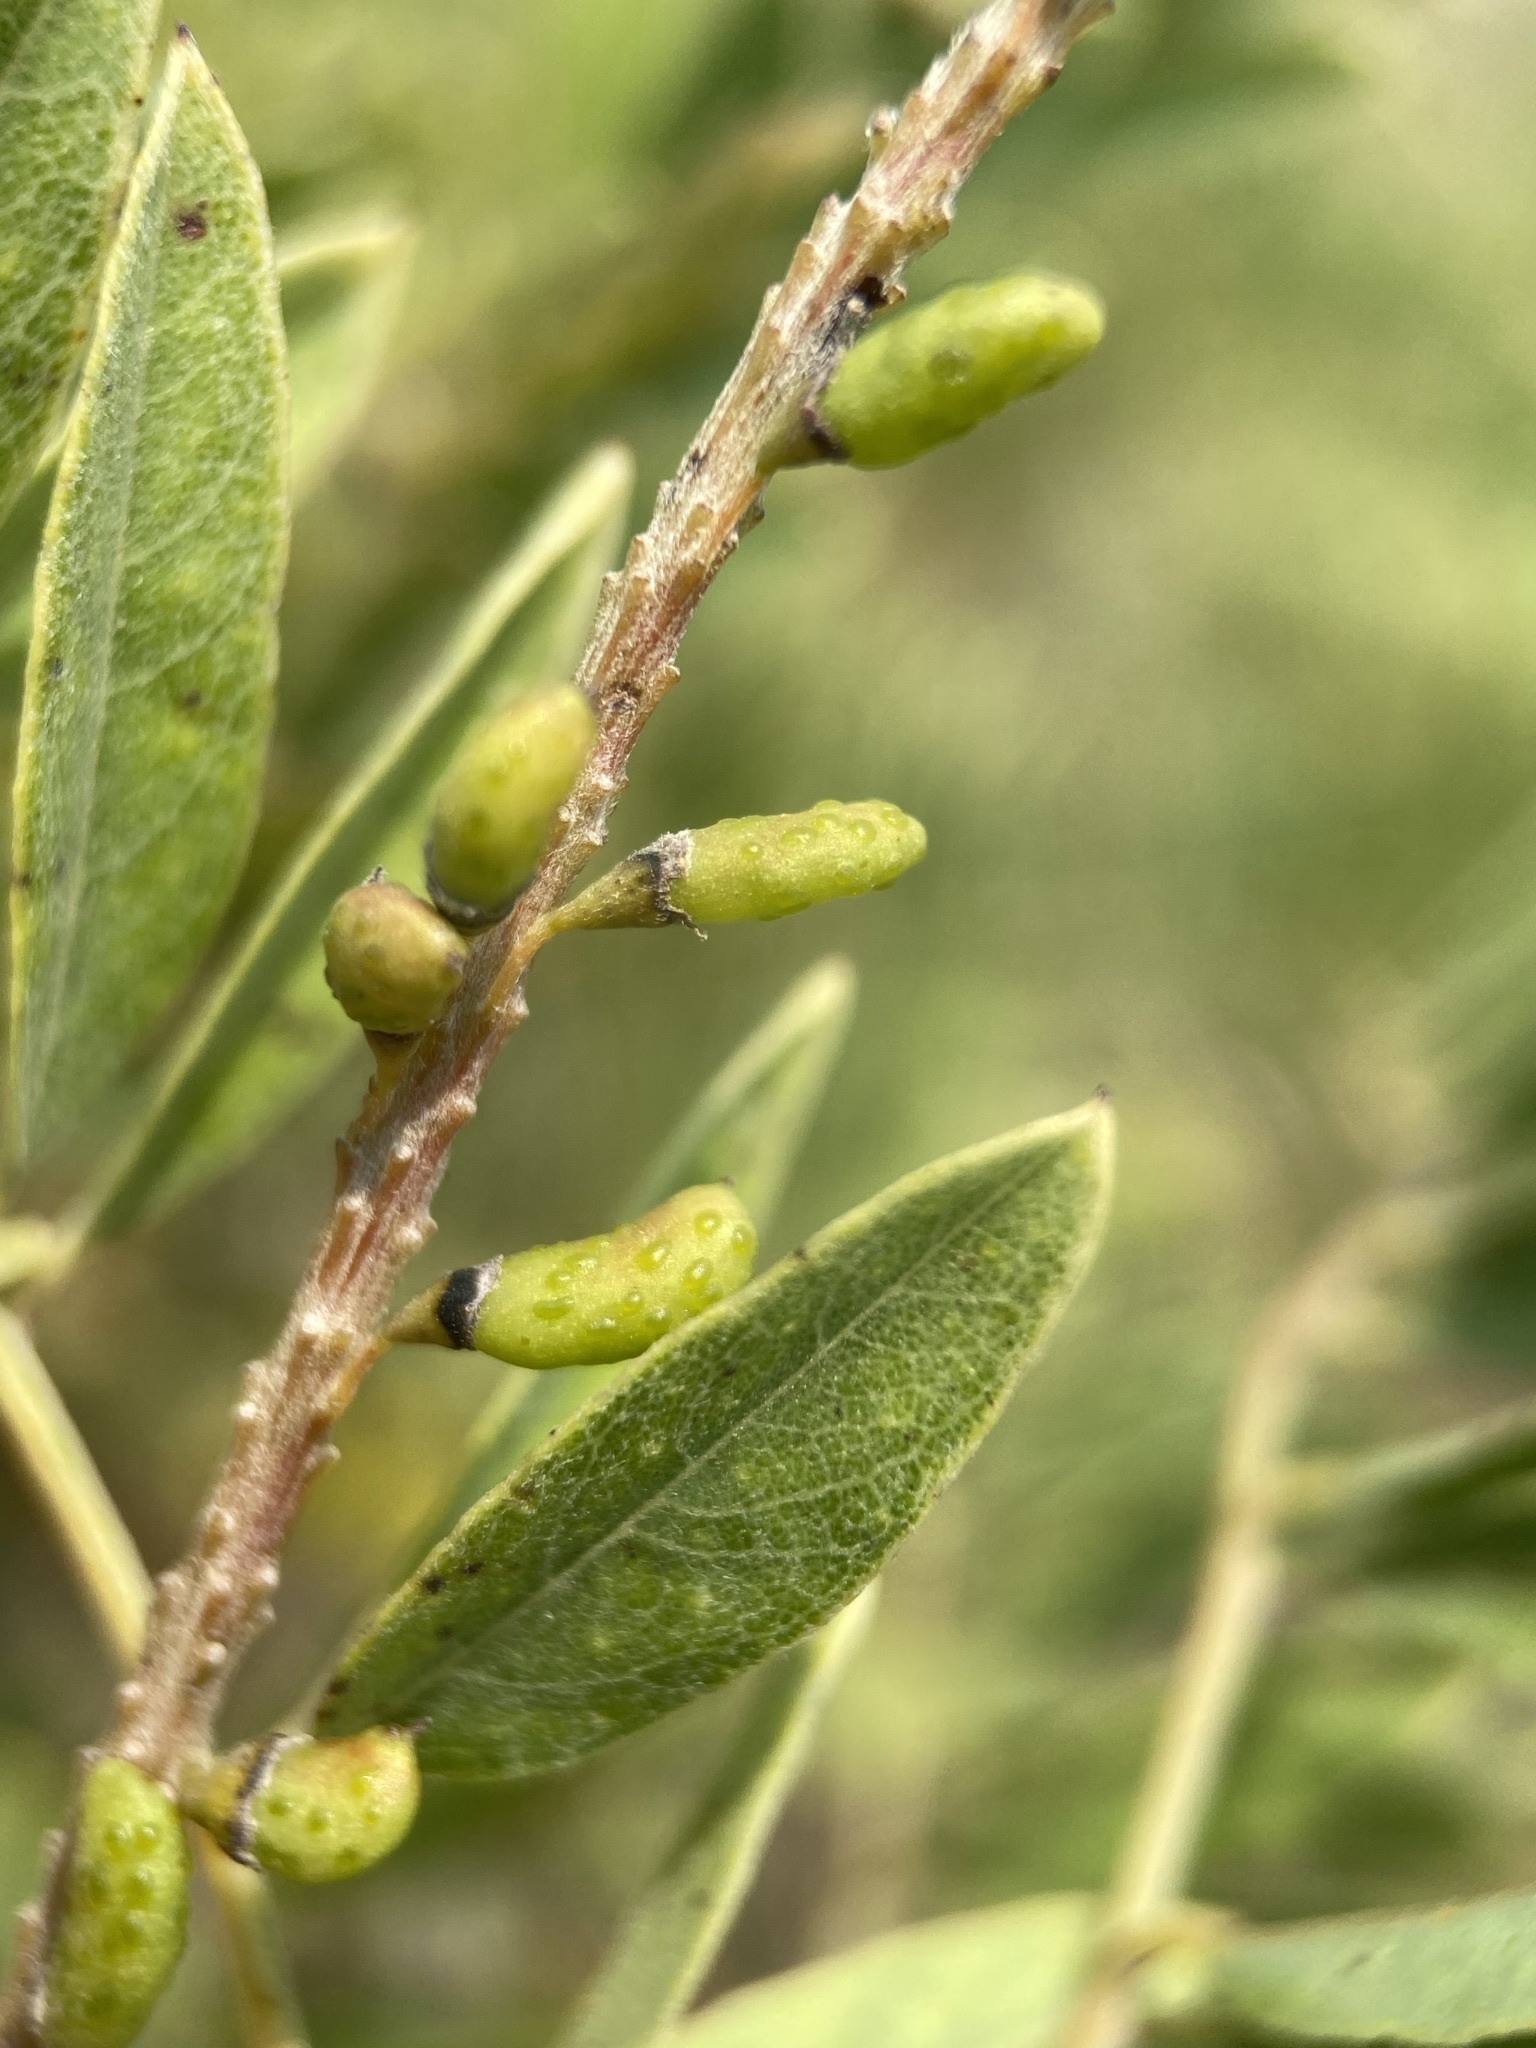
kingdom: Plantae
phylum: Tracheophyta
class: Magnoliopsida
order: Fabales
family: Fabaceae
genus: Amorpha
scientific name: Amorpha fruticosa
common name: False indigo
